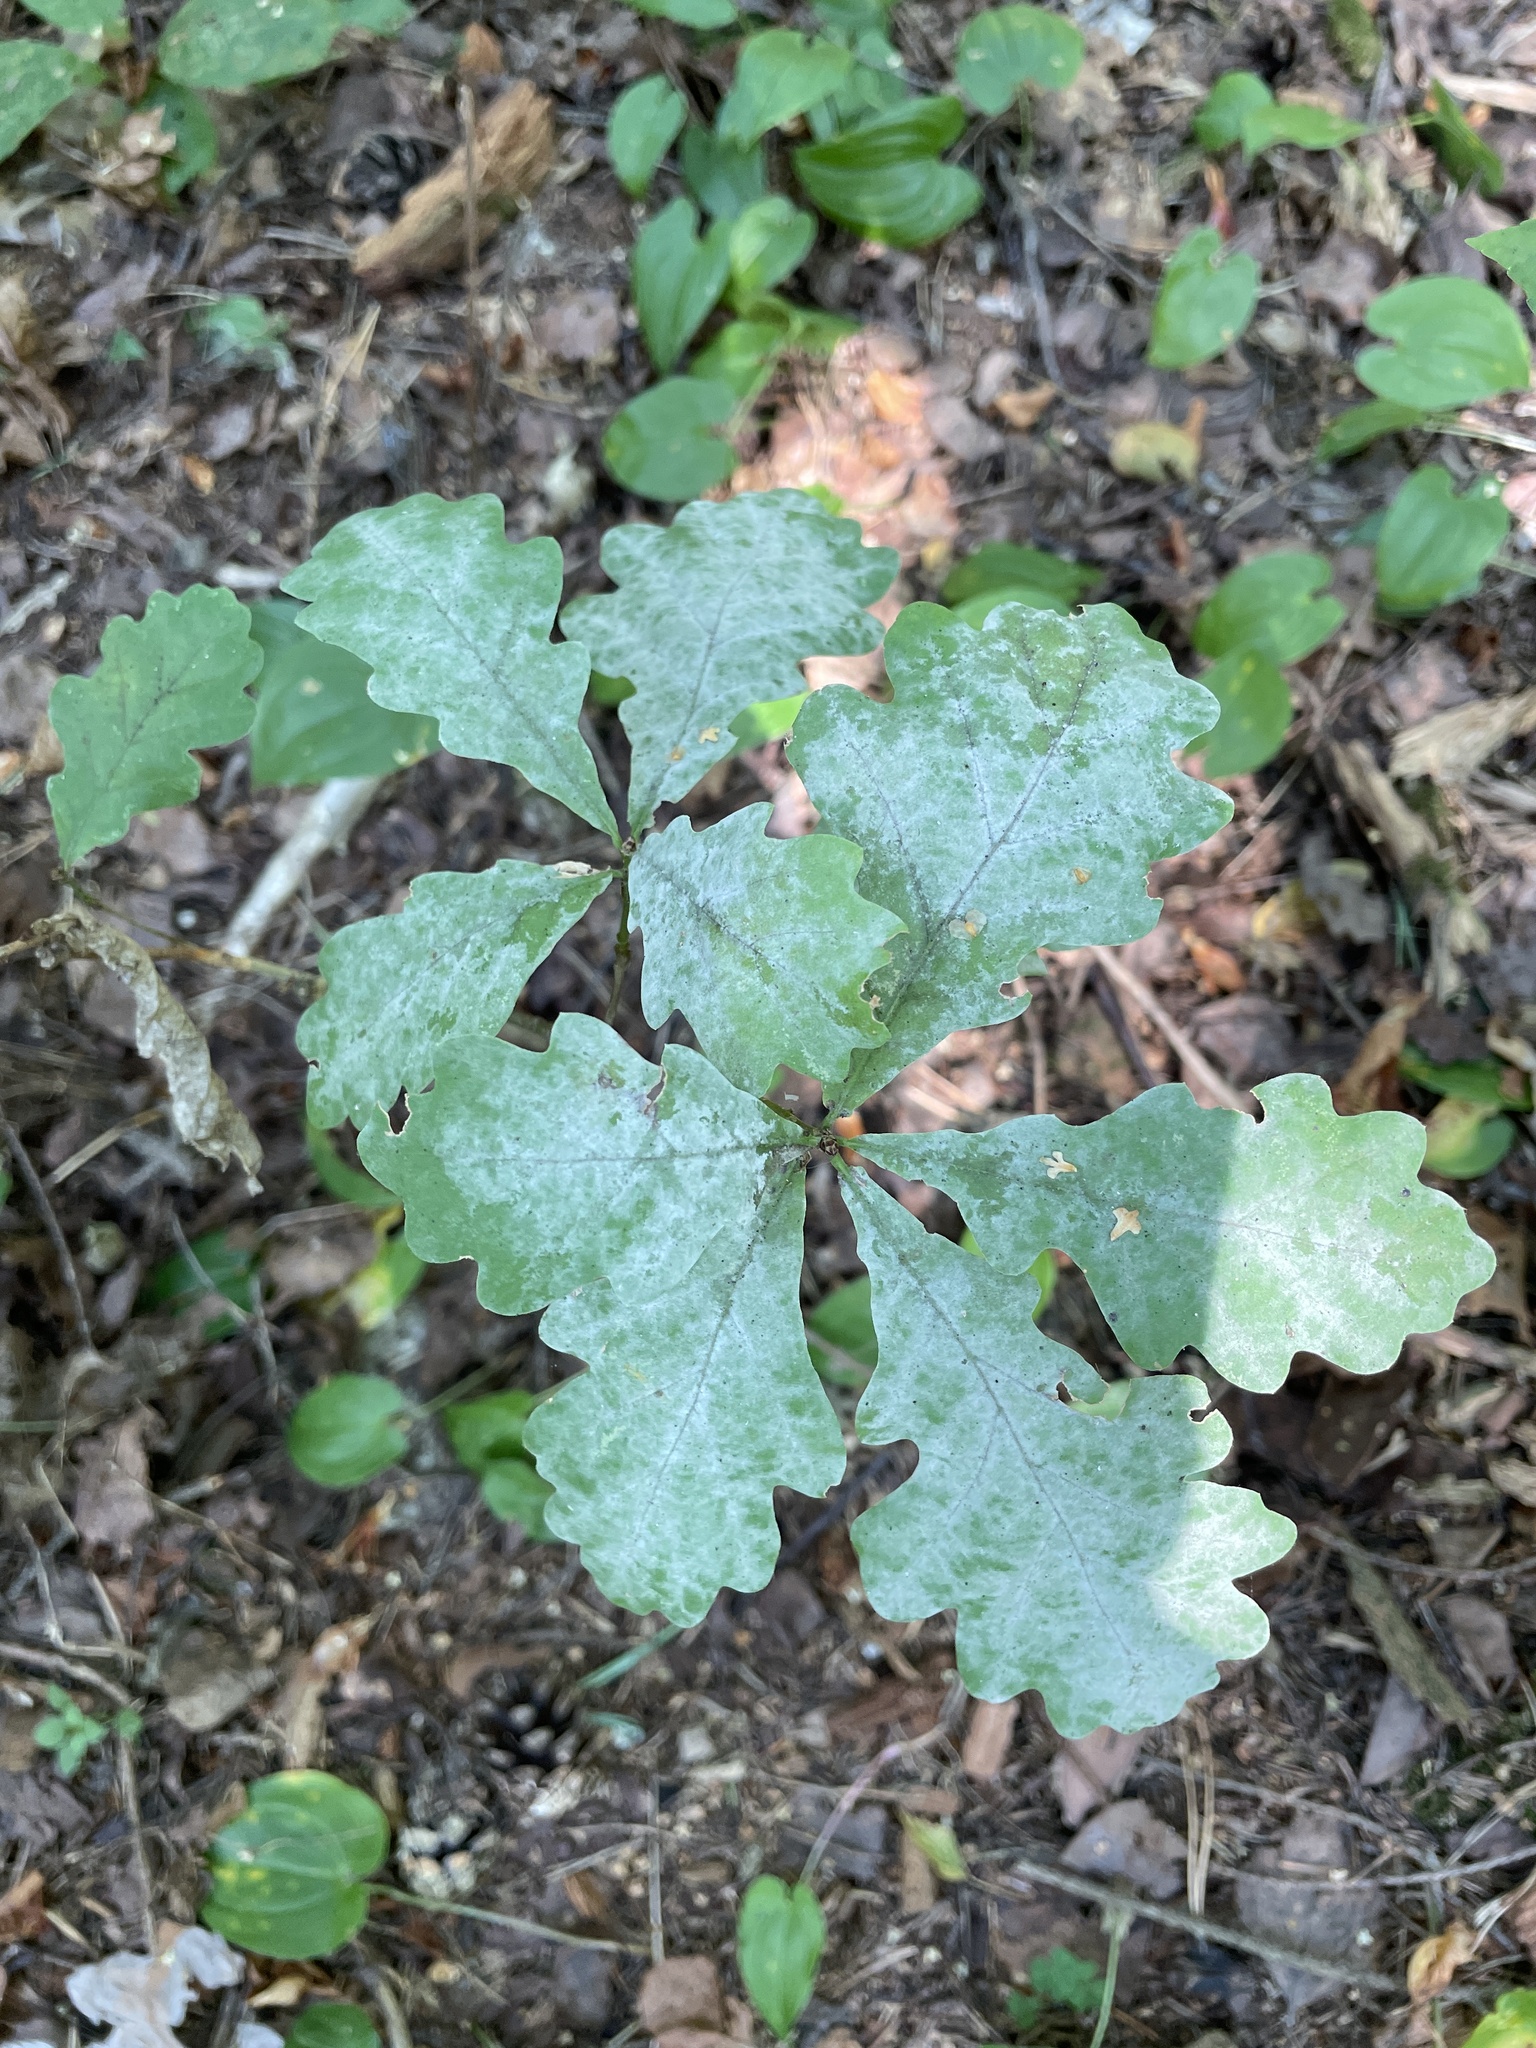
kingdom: Fungi
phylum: Ascomycota
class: Leotiomycetes
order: Helotiales
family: Erysiphaceae
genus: Erysiphe
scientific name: Erysiphe alphitoides
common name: Oak mildew
